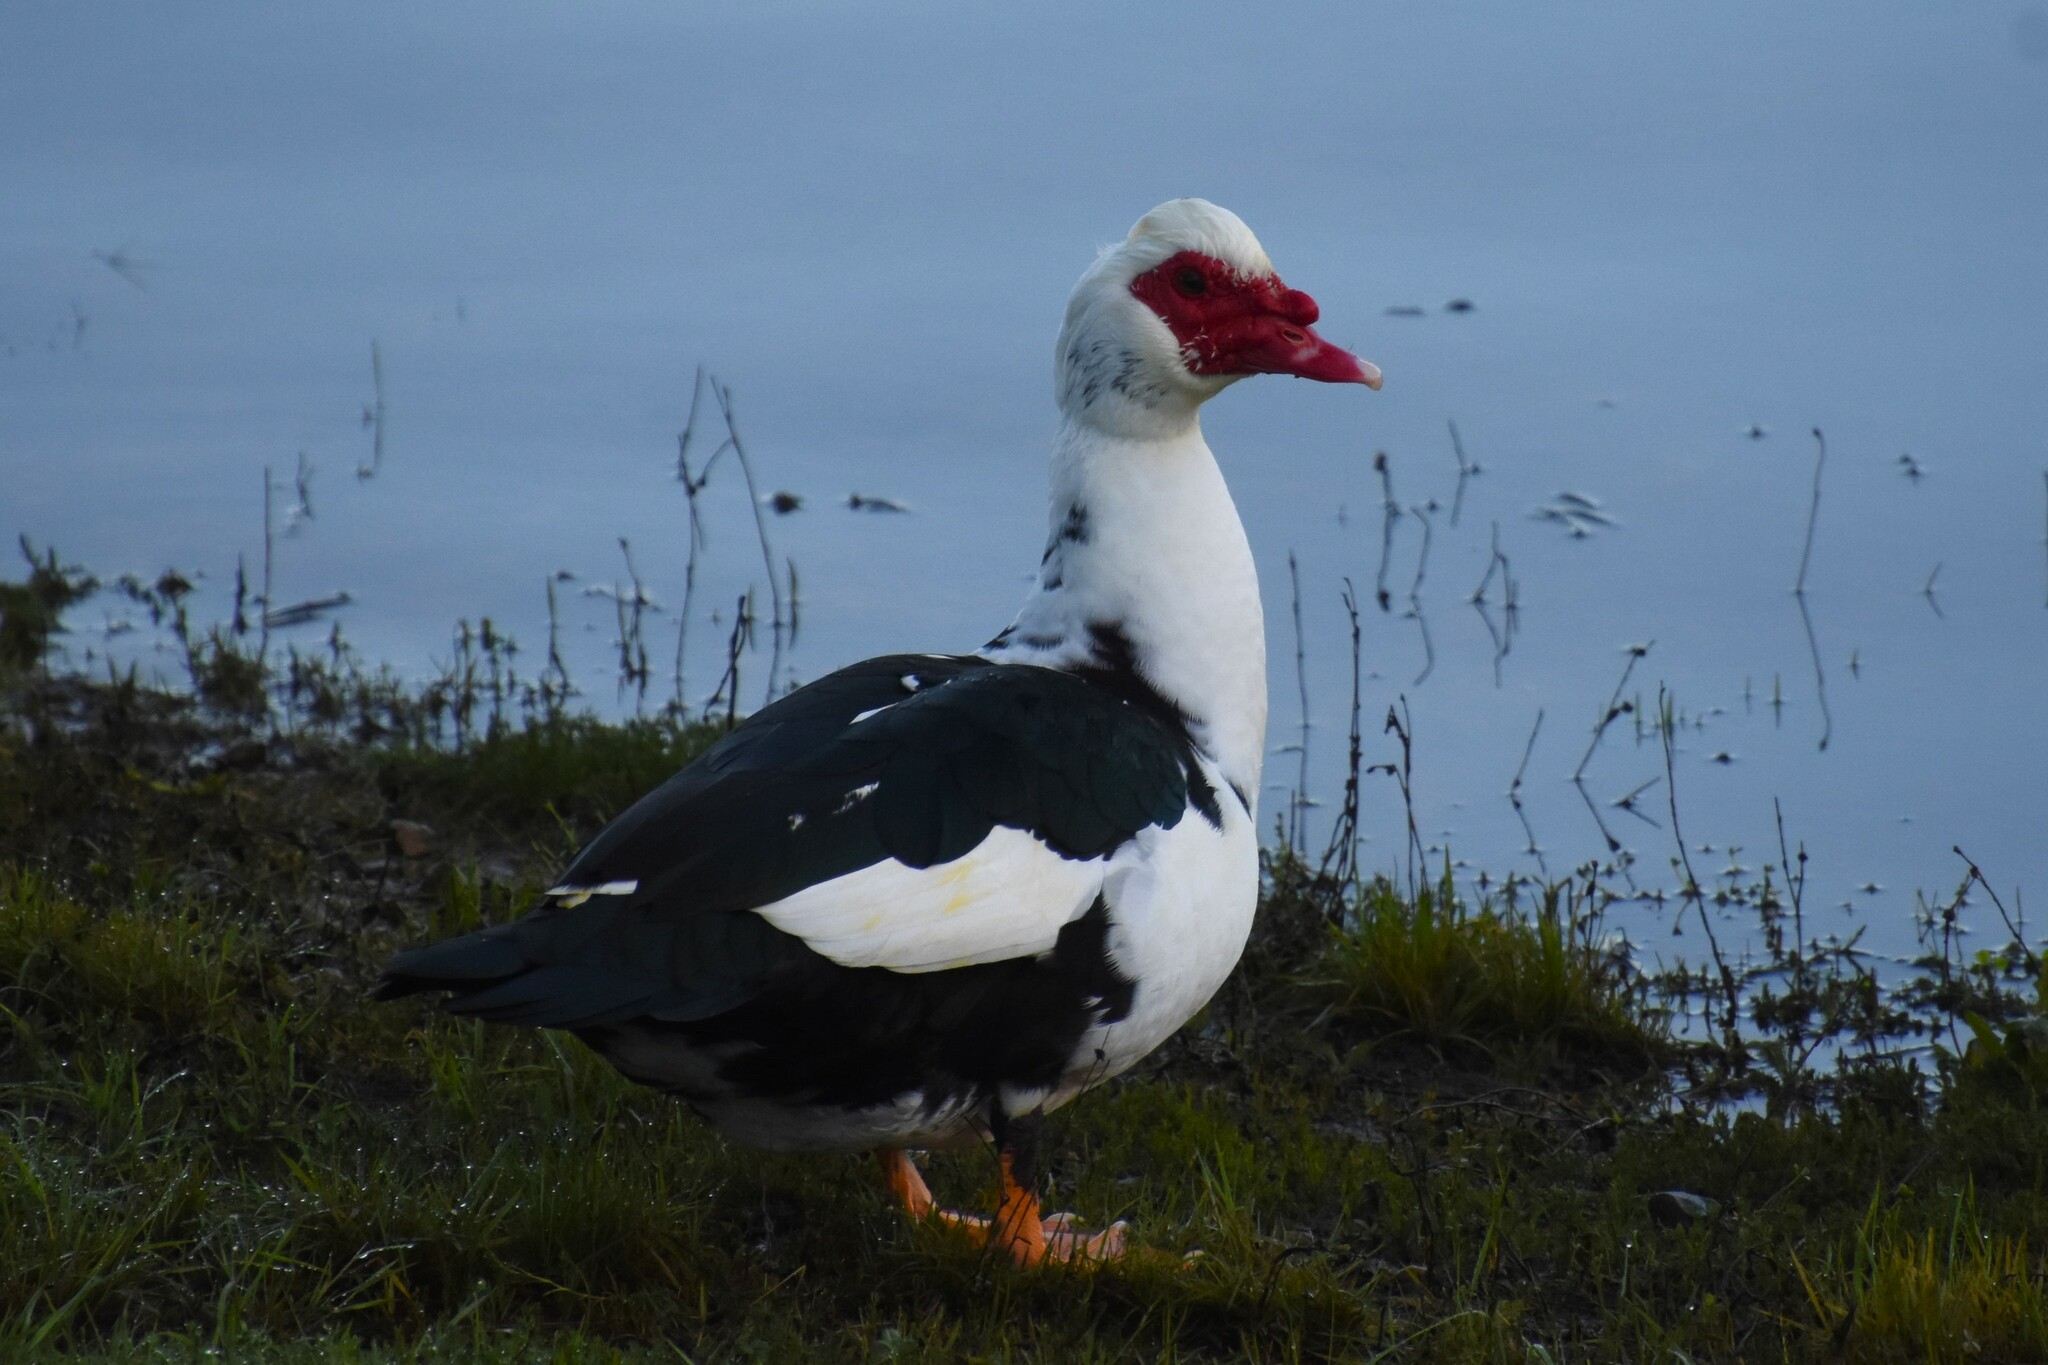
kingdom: Animalia
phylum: Chordata
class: Aves
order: Anseriformes
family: Anatidae
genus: Cairina
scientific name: Cairina moschata
